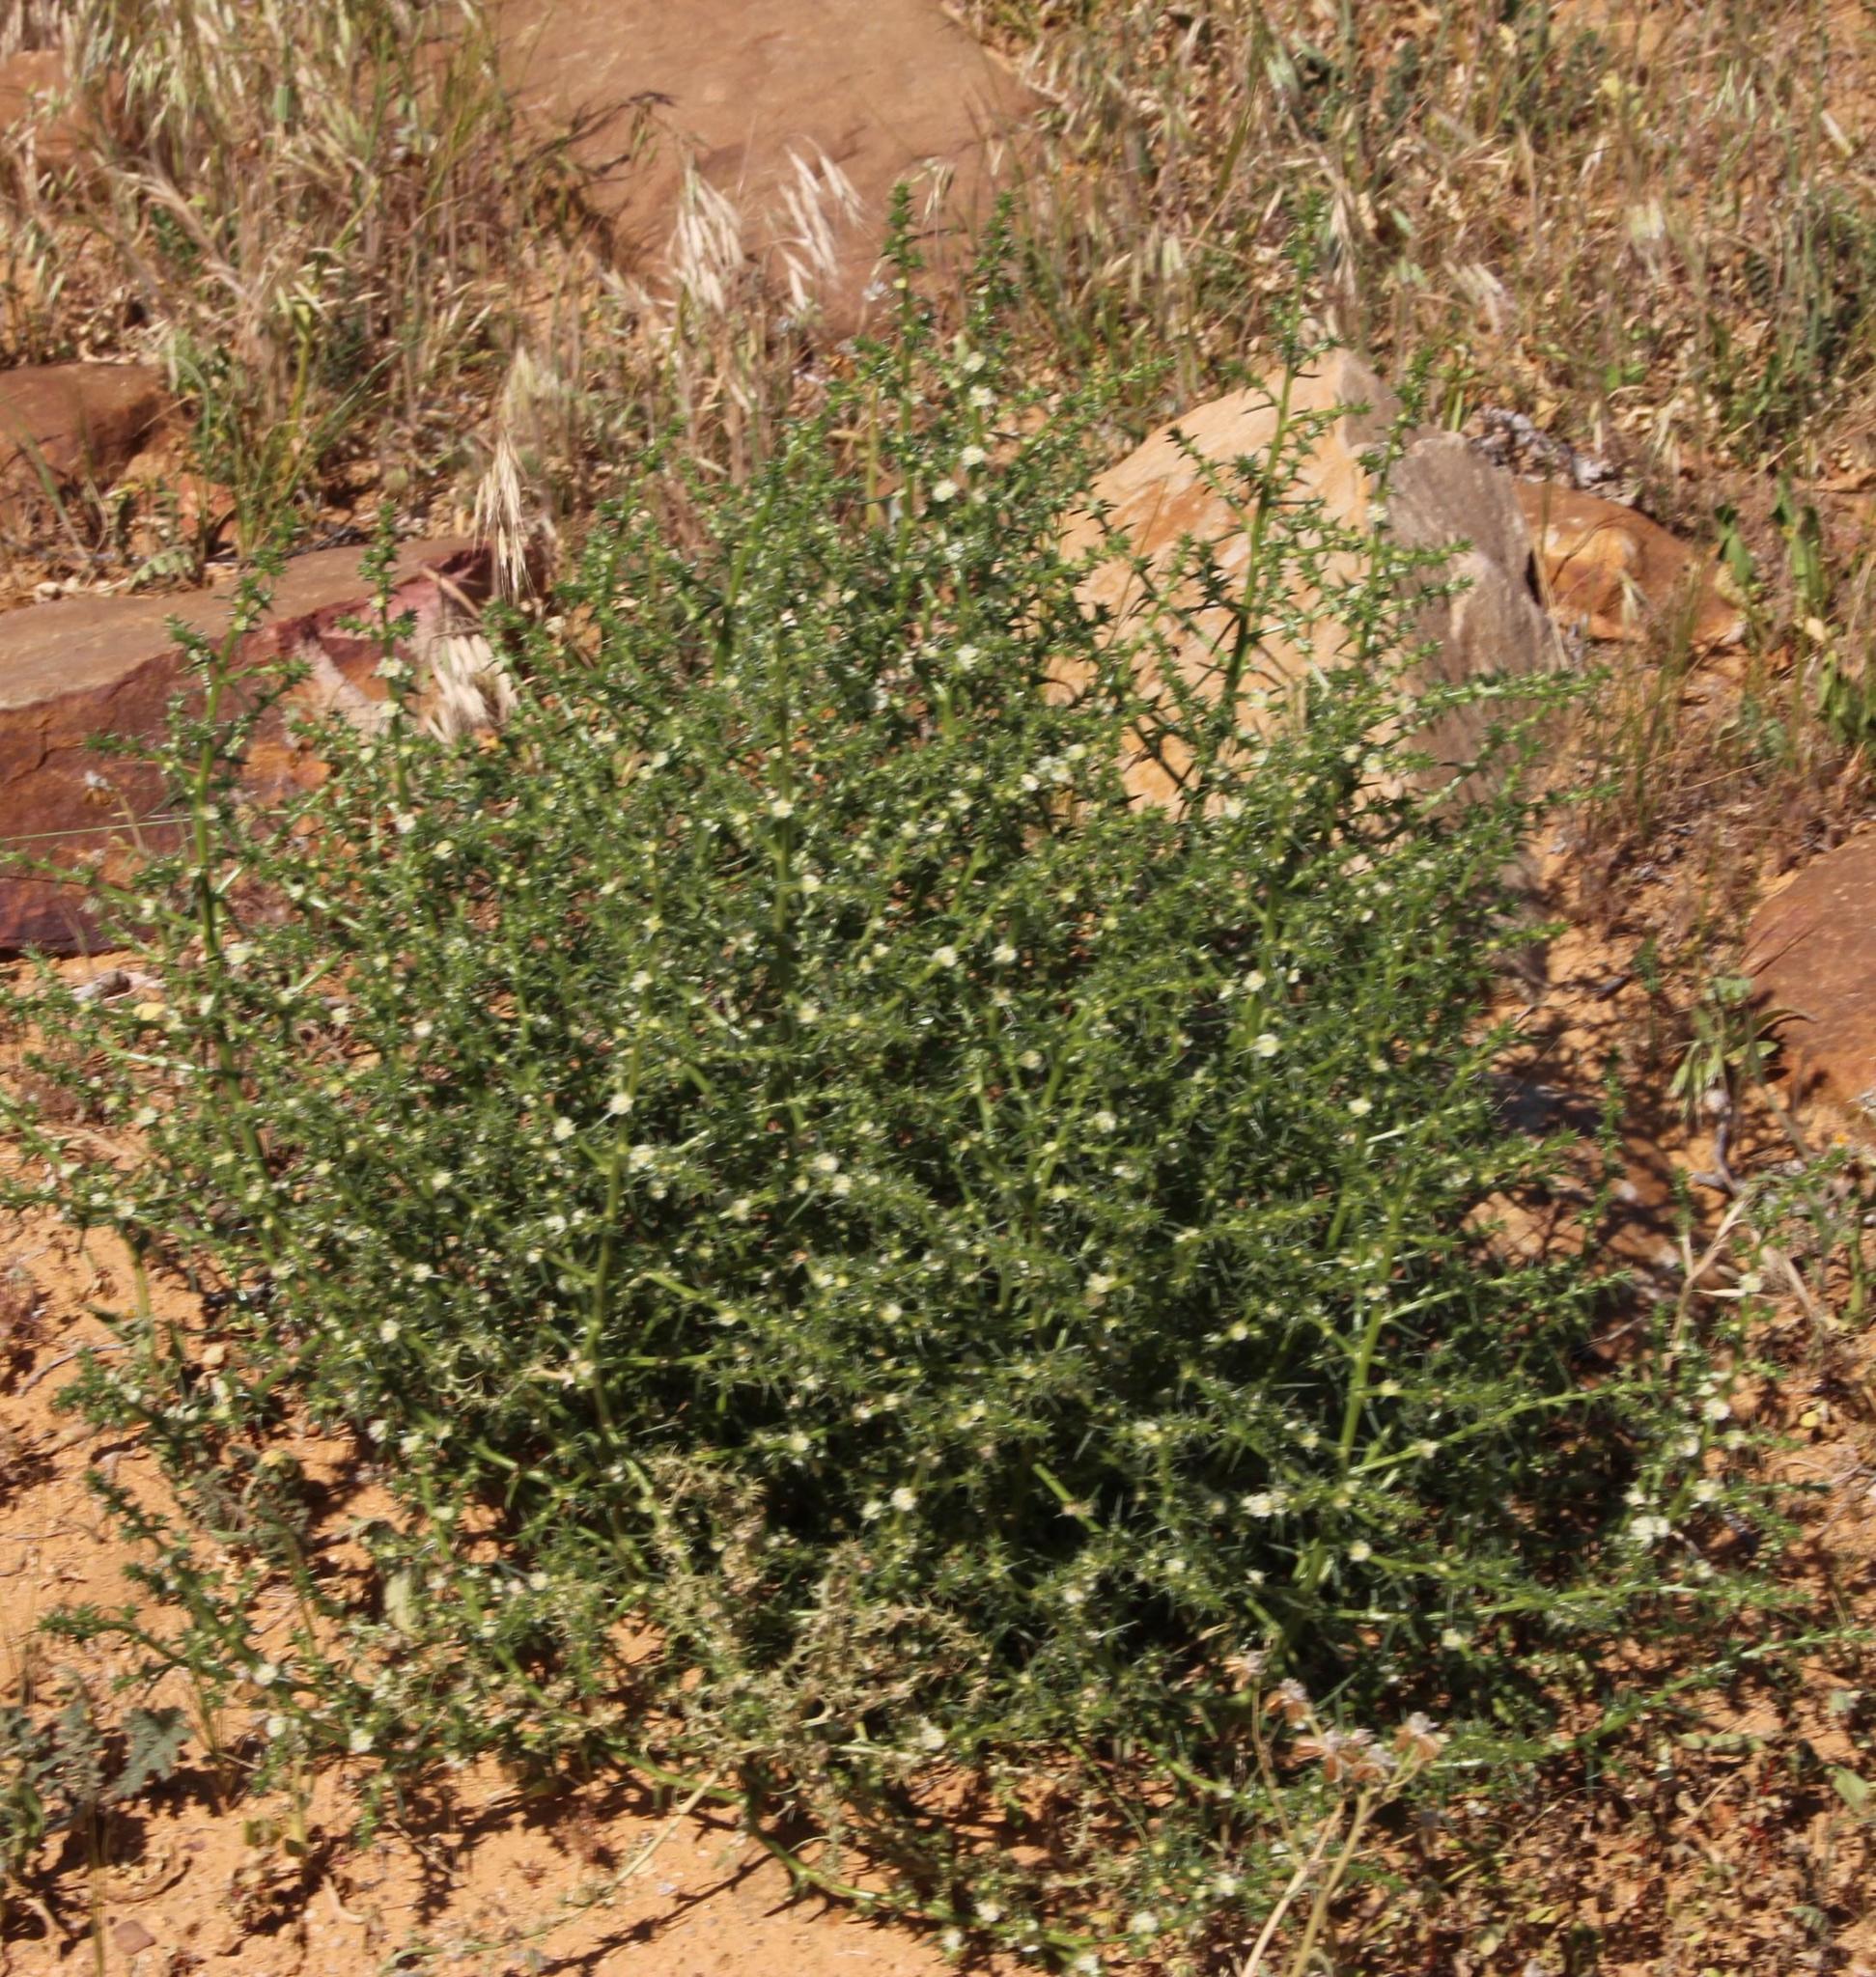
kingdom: Plantae
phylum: Tracheophyta
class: Magnoliopsida
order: Caryophyllales
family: Amaranthaceae
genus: Salsola
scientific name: Salsola kali
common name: Saltwort
